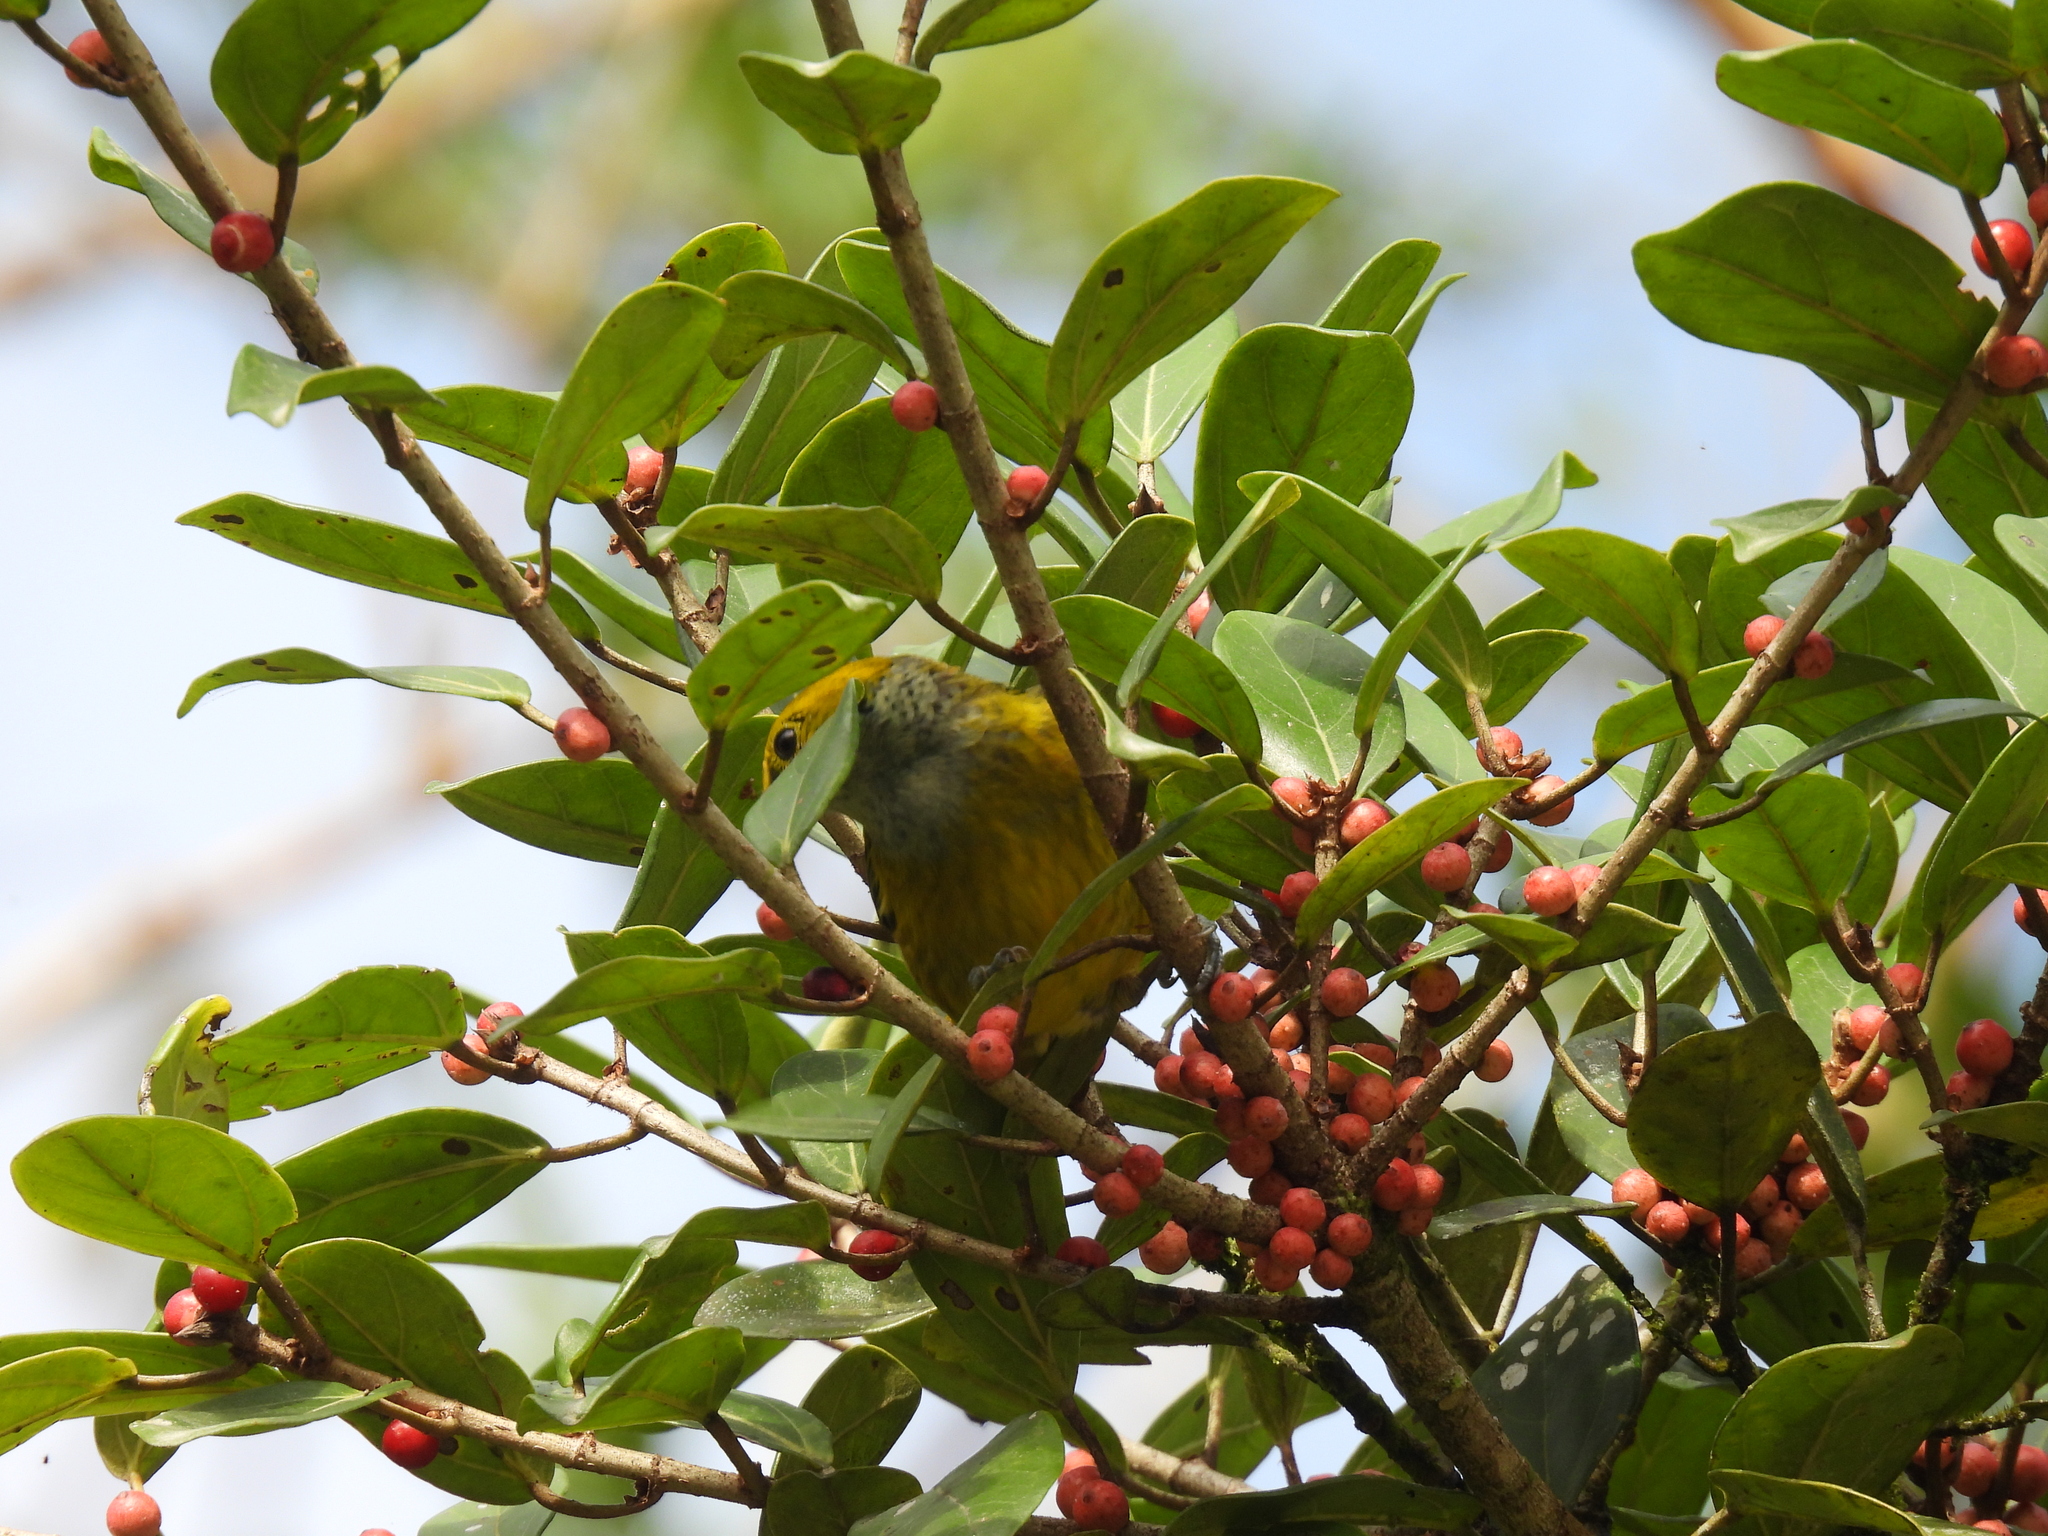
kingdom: Animalia
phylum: Chordata
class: Aves
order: Passeriformes
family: Thraupidae
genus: Tangara
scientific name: Tangara icterocephala
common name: Silver-throated tanager
